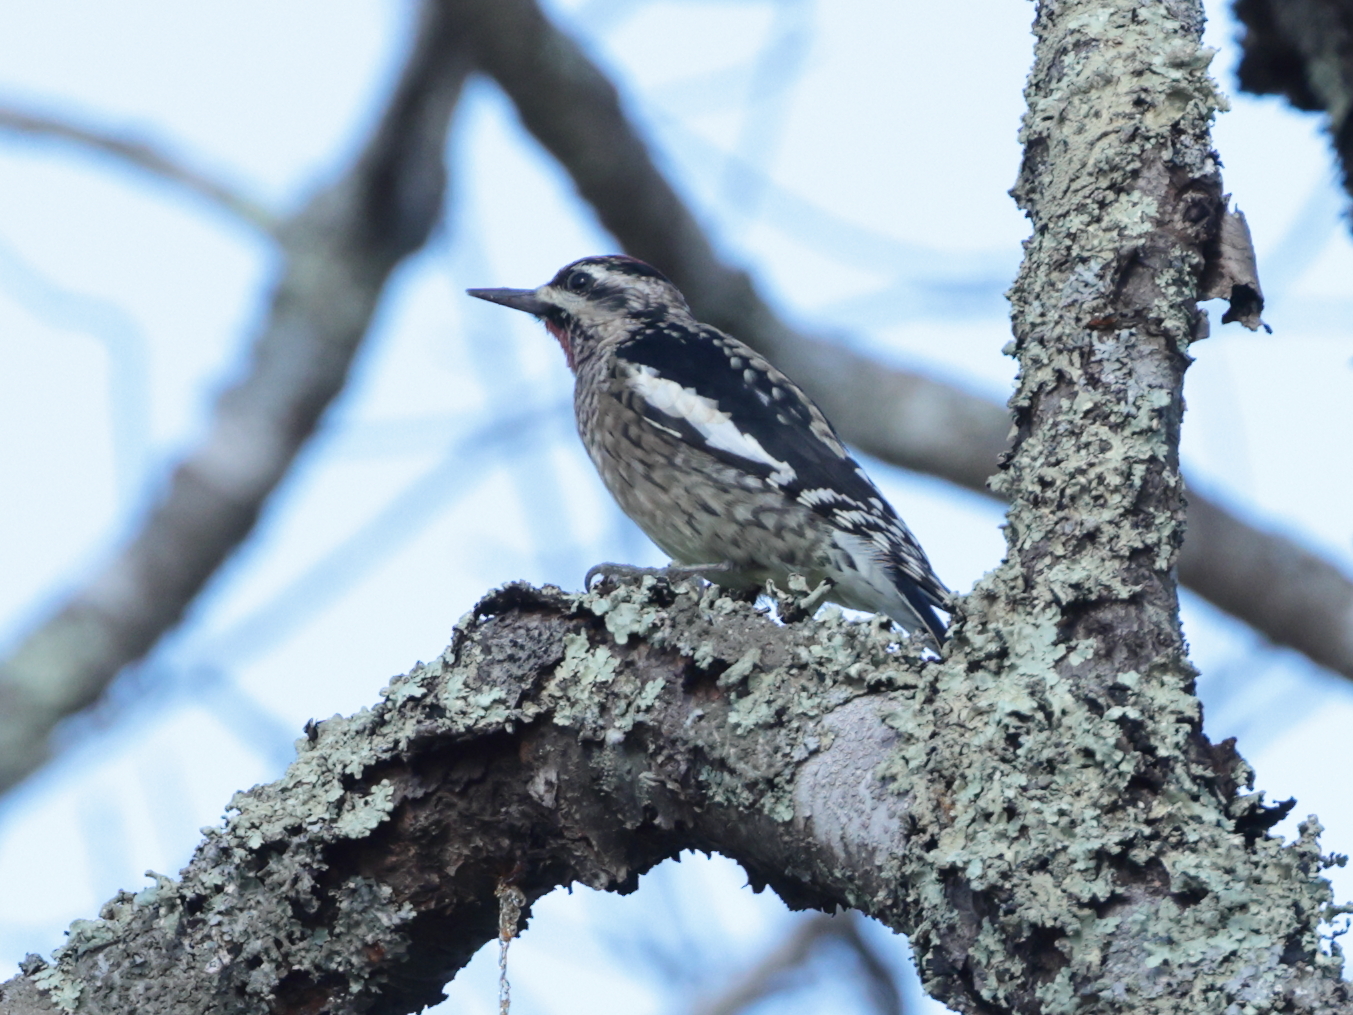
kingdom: Animalia
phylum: Chordata
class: Aves
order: Piciformes
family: Picidae
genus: Sphyrapicus
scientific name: Sphyrapicus varius
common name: Yellow-bellied sapsucker
